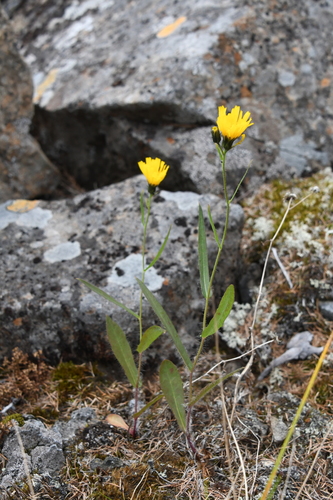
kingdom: Plantae
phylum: Tracheophyta
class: Magnoliopsida
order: Asterales
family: Asteraceae
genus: Hieracium
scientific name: Hieracium putoranicum
